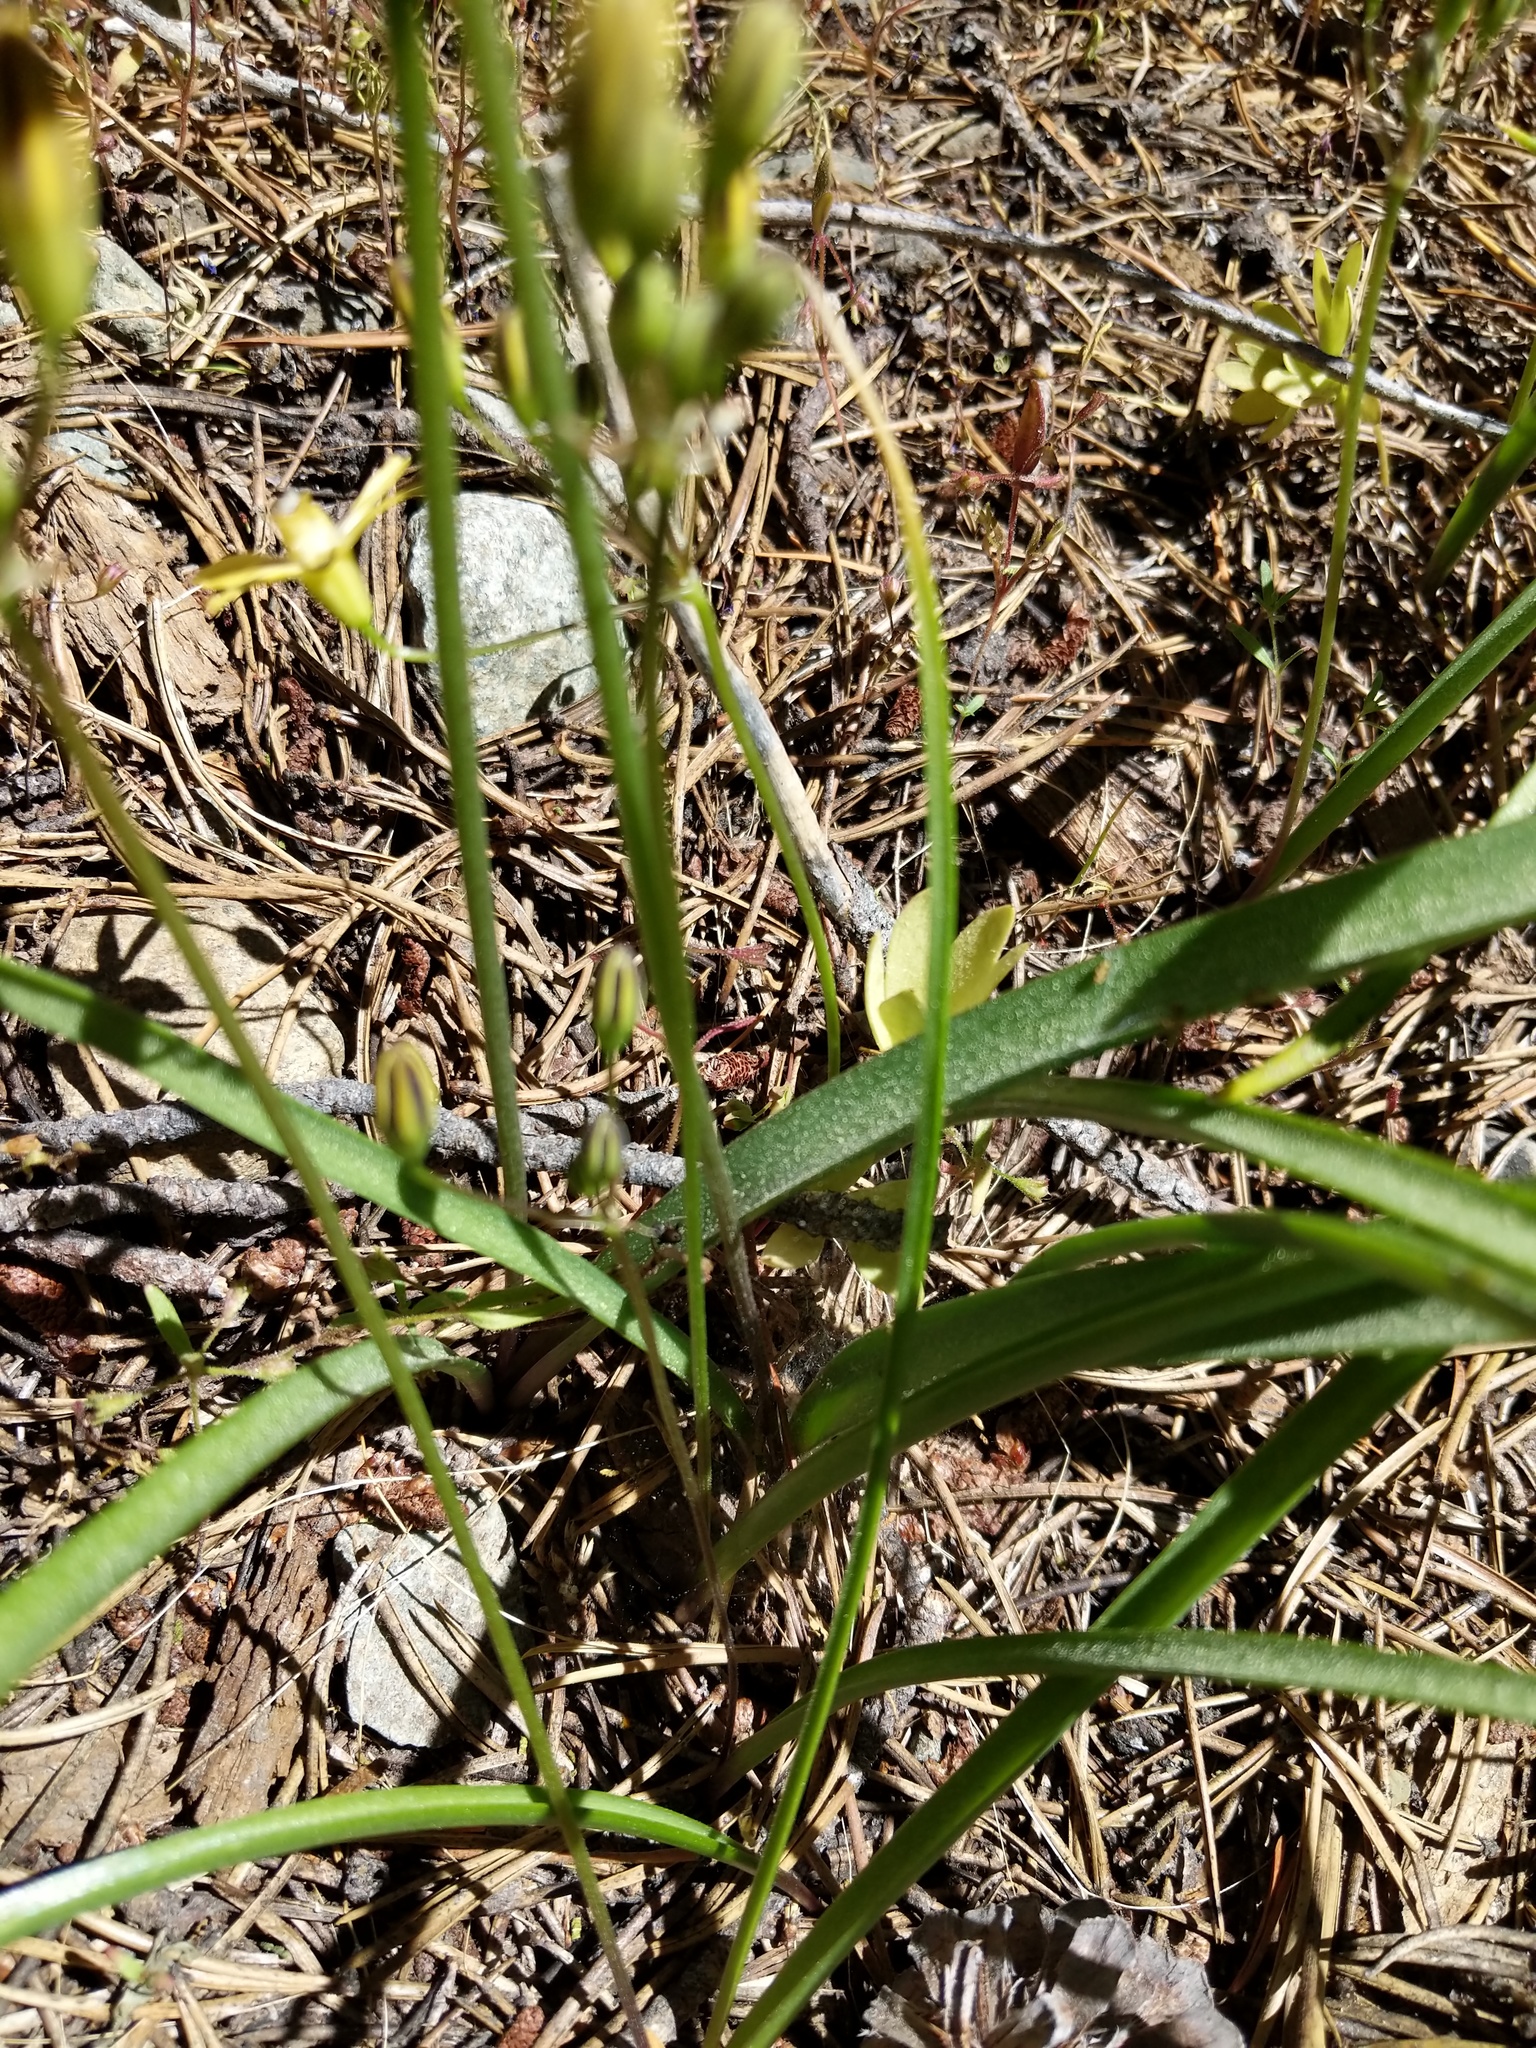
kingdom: Plantae
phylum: Tracheophyta
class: Liliopsida
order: Asparagales
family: Asparagaceae
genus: Triteleia
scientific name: Triteleia ixioides
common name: Yellow-brodiaea
